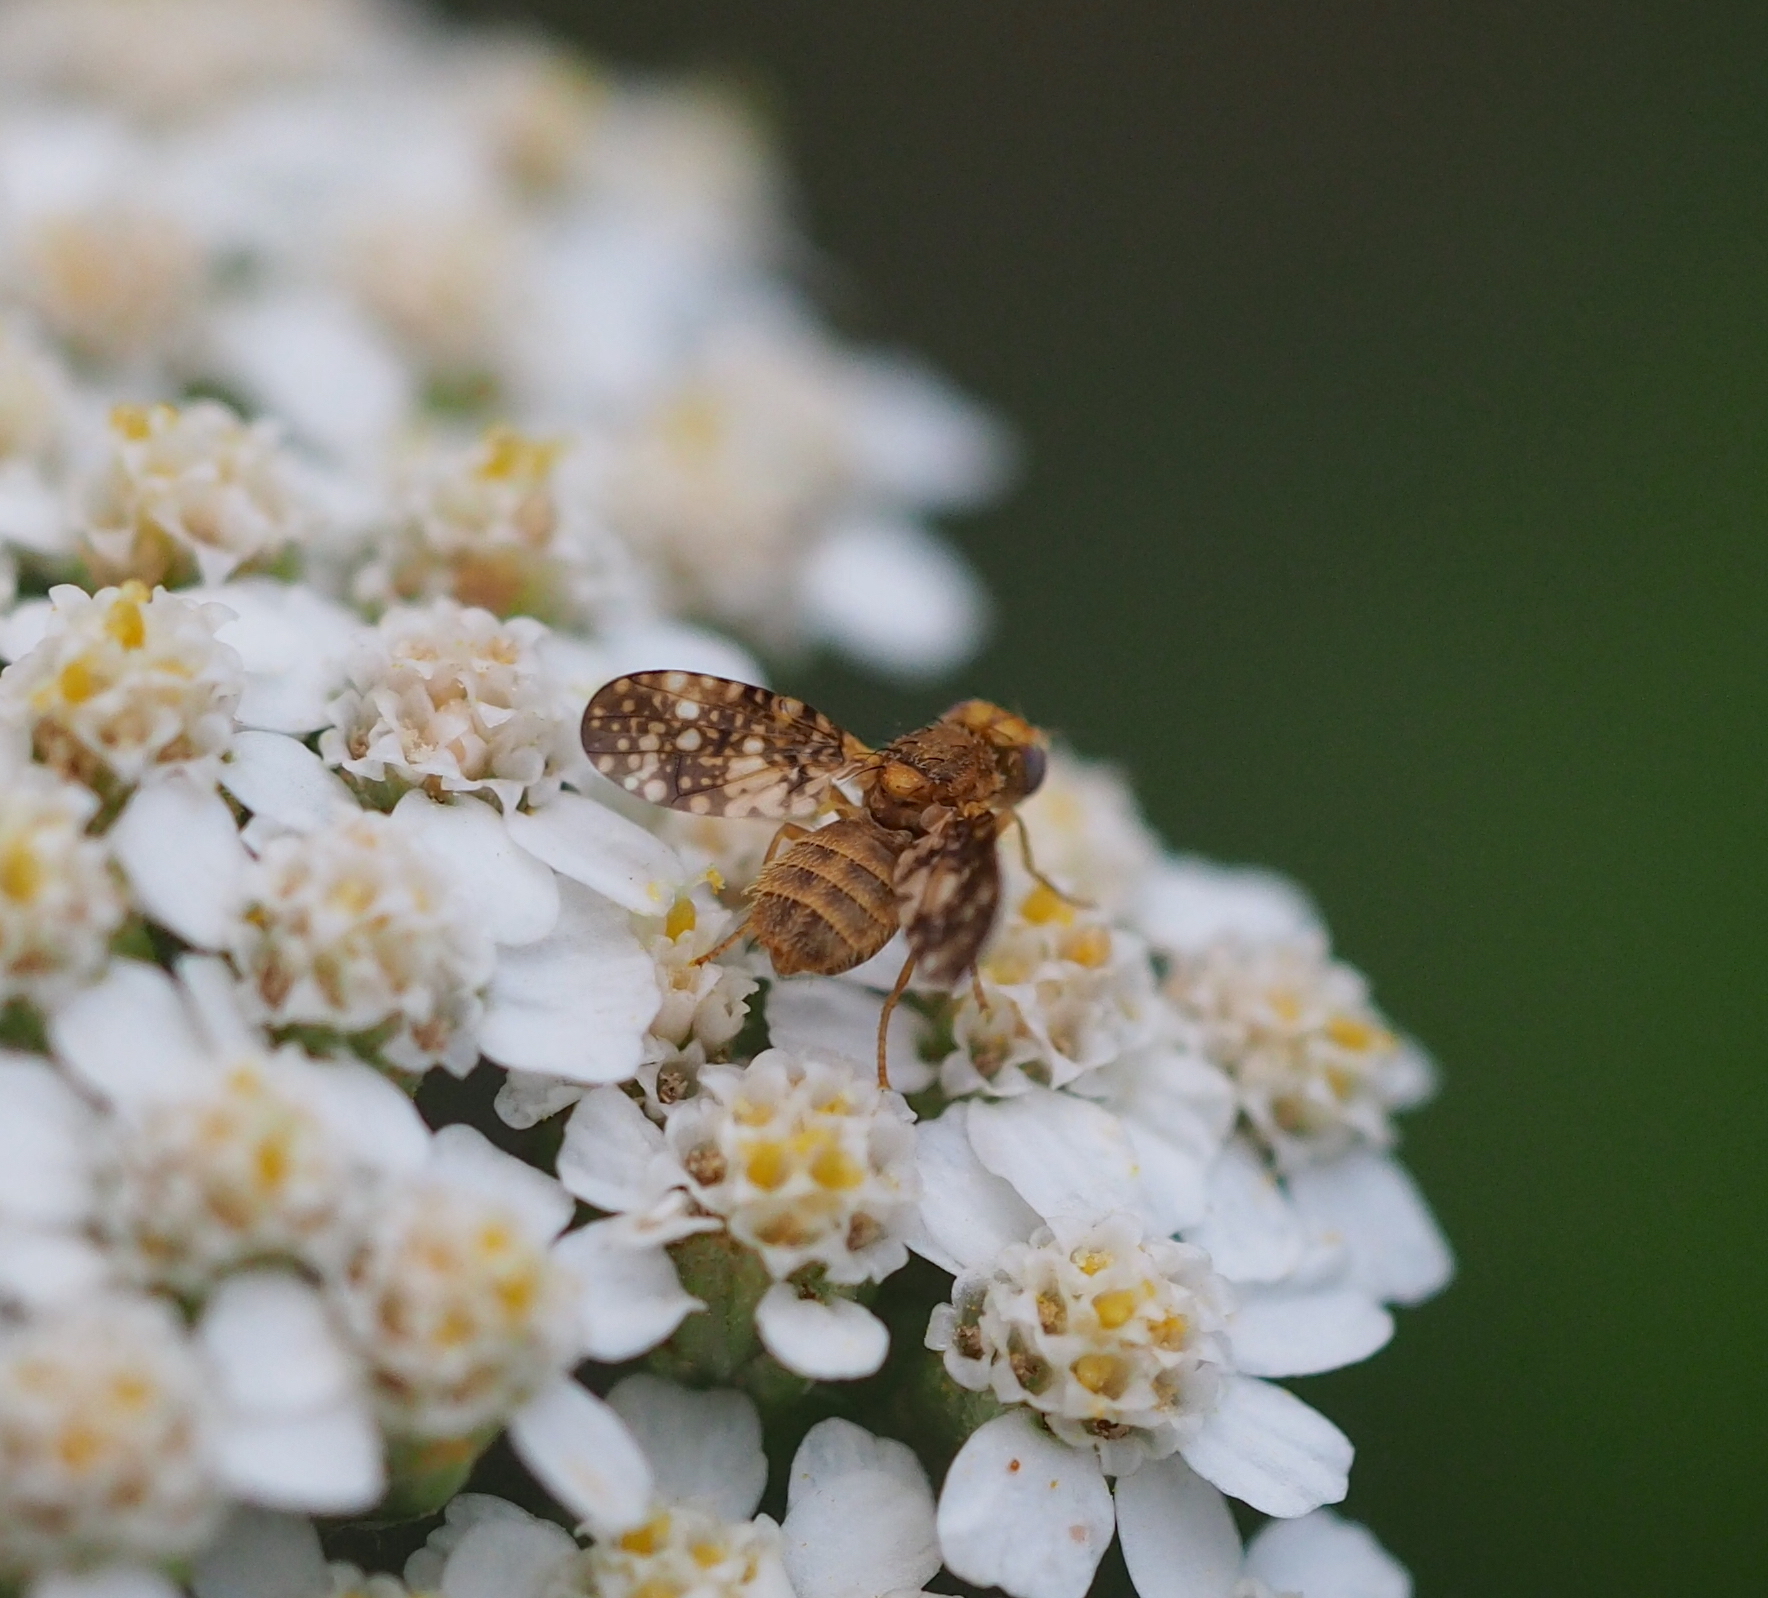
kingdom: Animalia
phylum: Arthropoda
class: Insecta
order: Diptera
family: Tephritidae
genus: Oxyna
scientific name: Oxyna flavipennis
